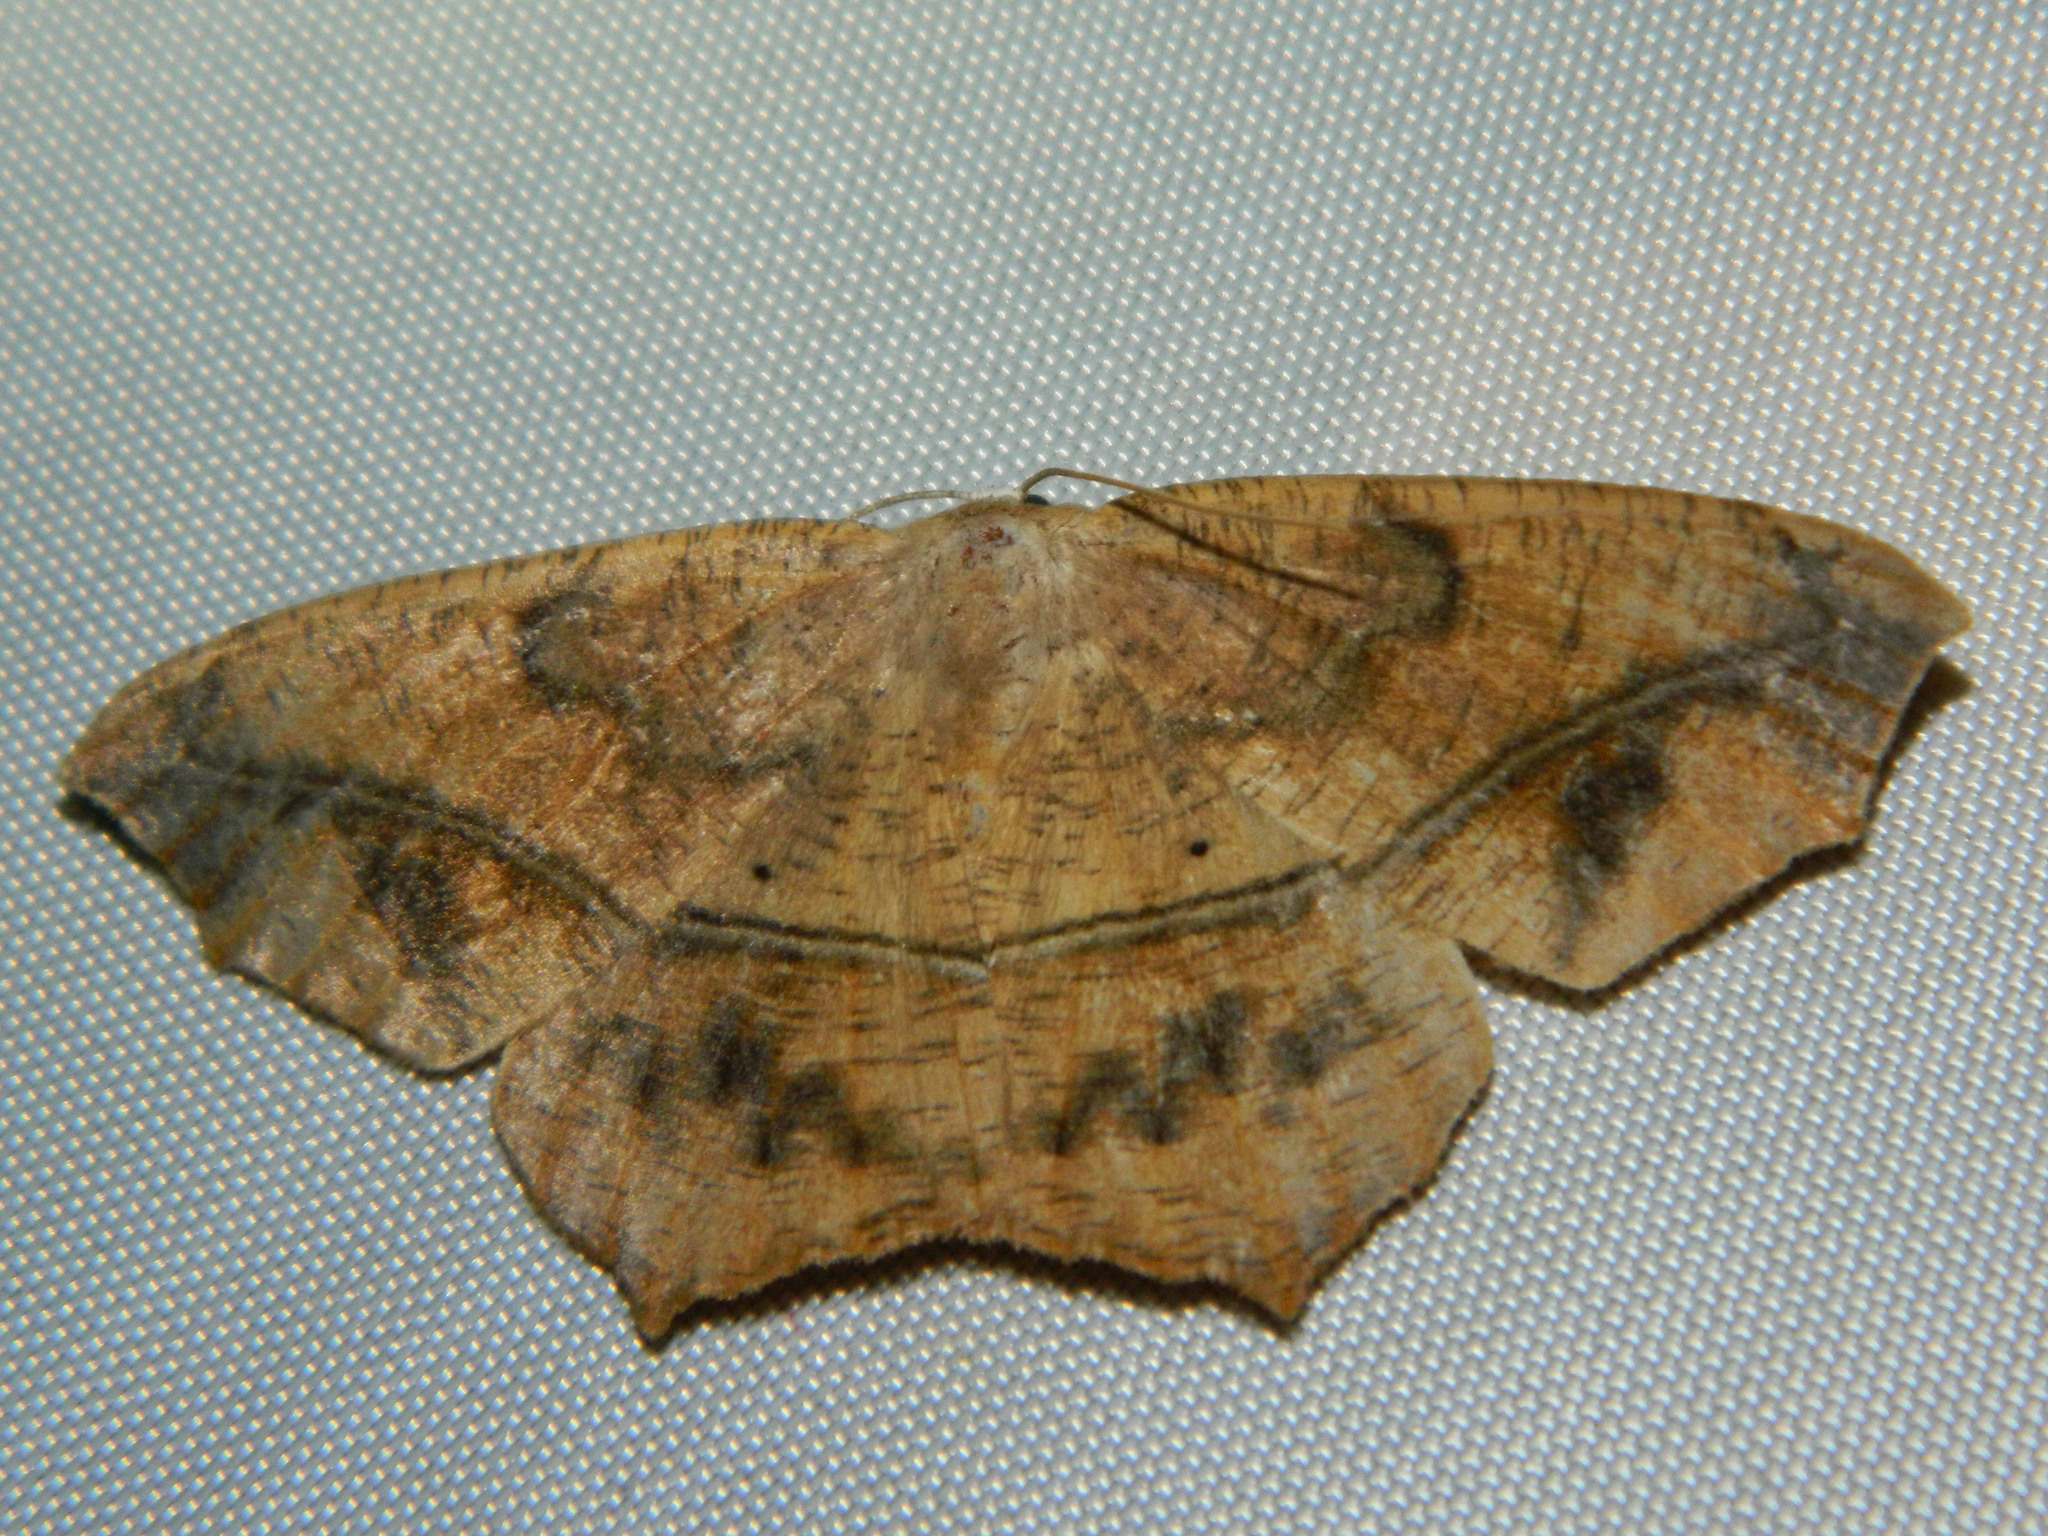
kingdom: Animalia
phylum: Arthropoda
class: Insecta
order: Lepidoptera
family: Geometridae
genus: Prochoerodes
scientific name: Prochoerodes lineola
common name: Large maple spanworm
